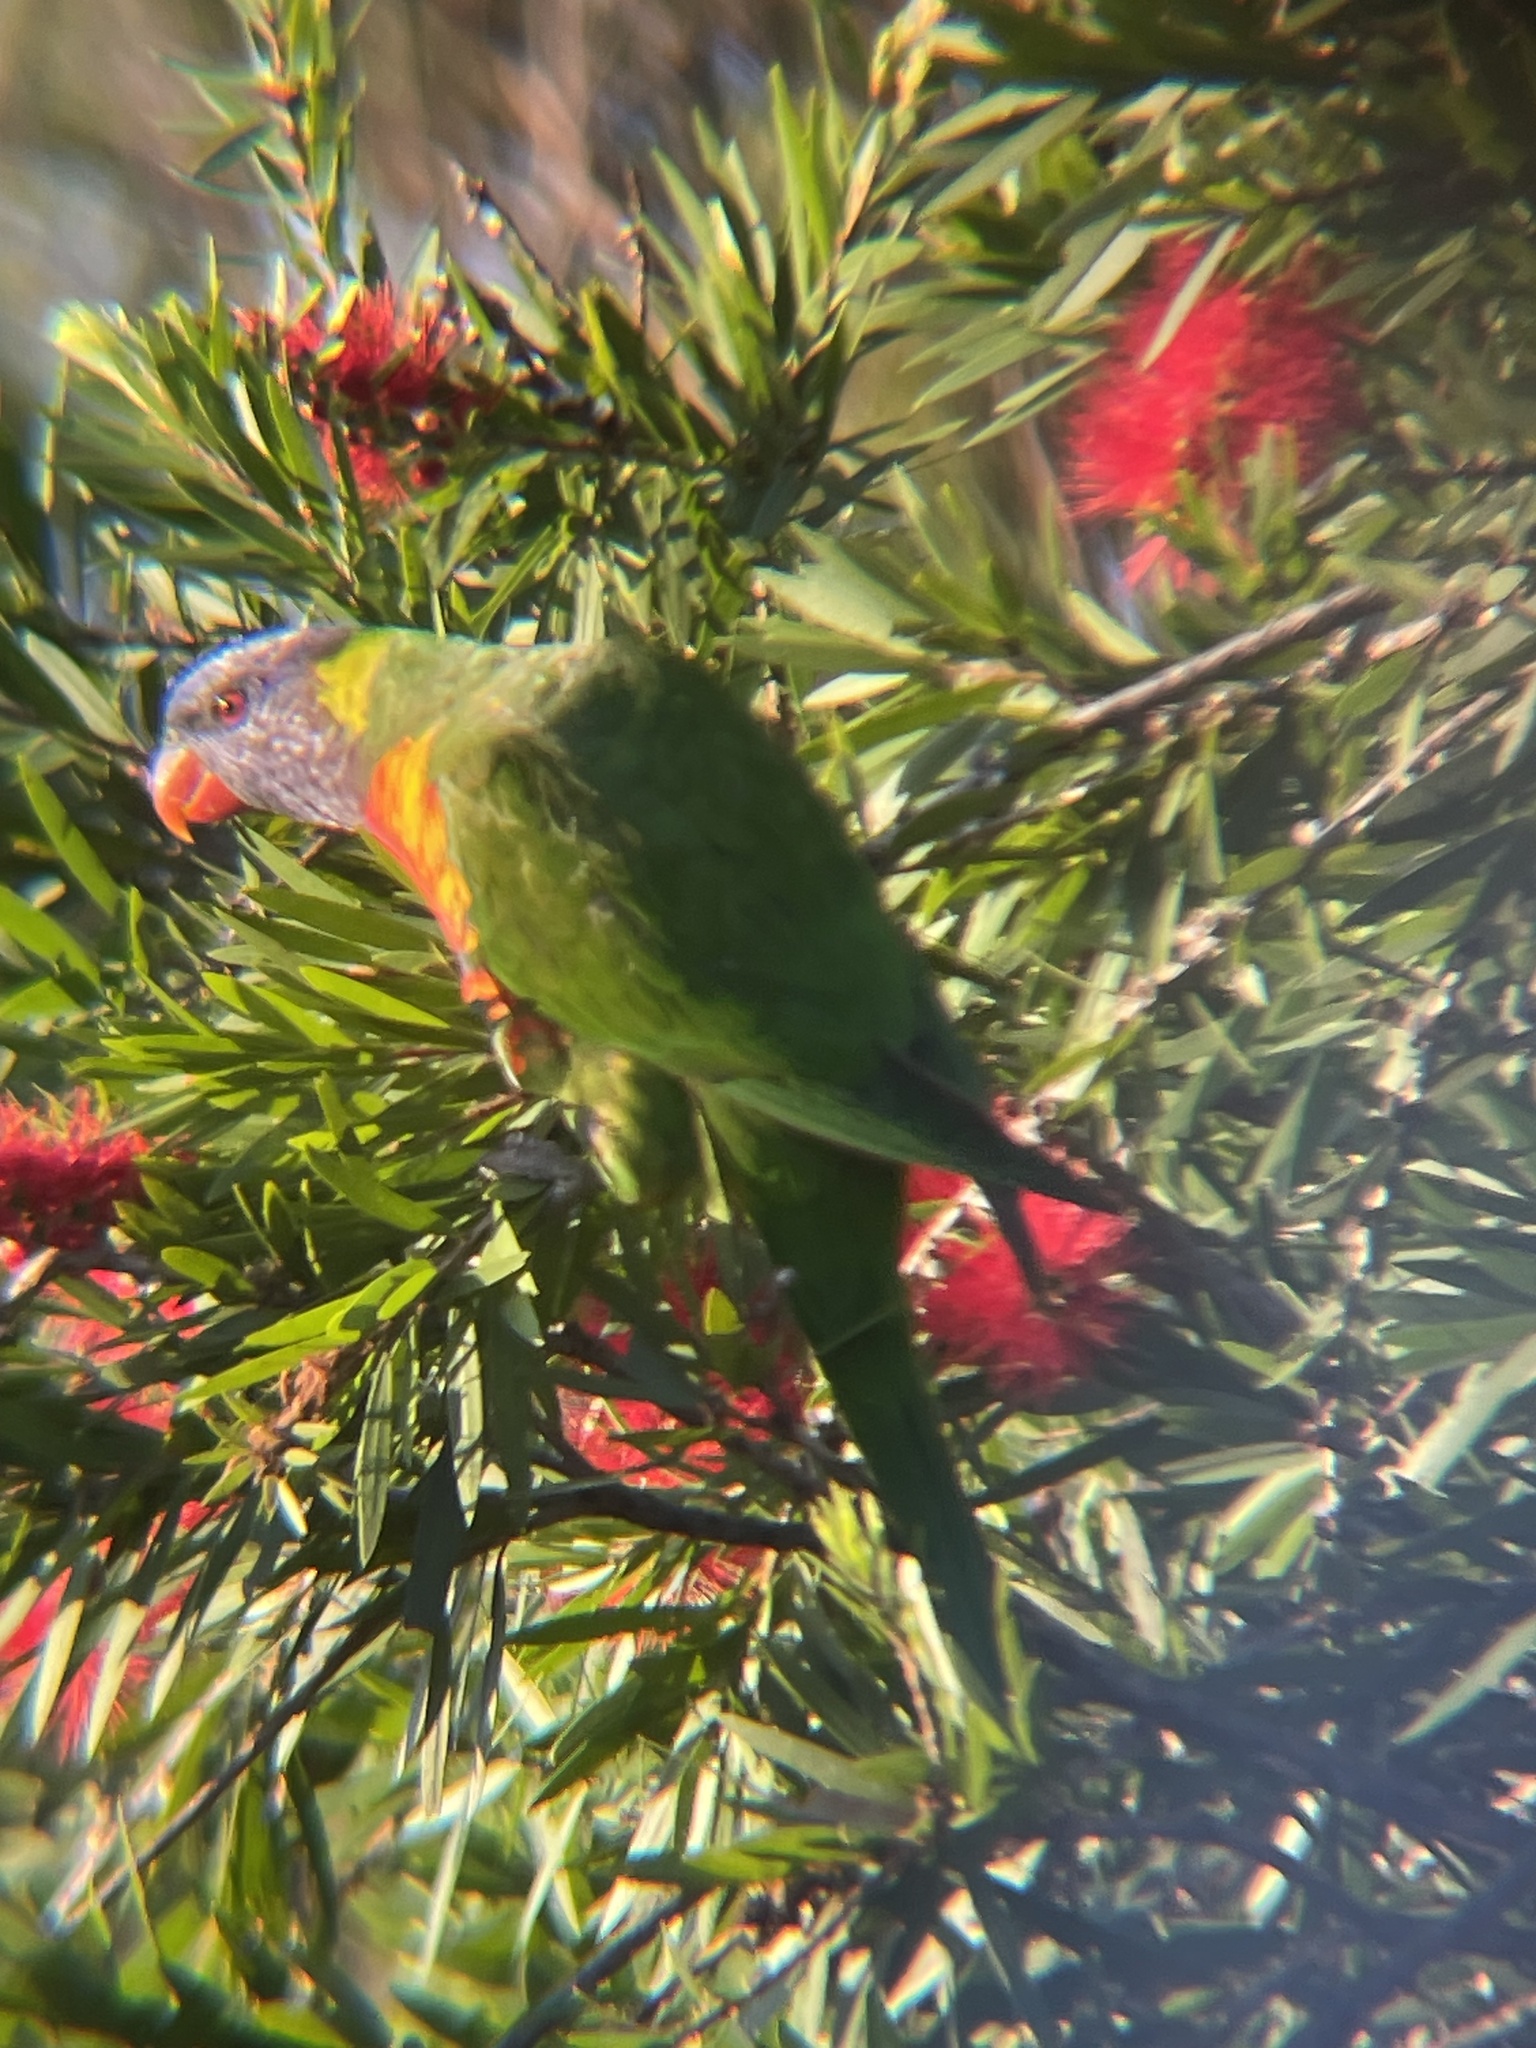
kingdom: Animalia
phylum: Chordata
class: Aves
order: Psittaciformes
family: Psittacidae
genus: Trichoglossus
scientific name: Trichoglossus haematodus
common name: Coconut lorikeet
